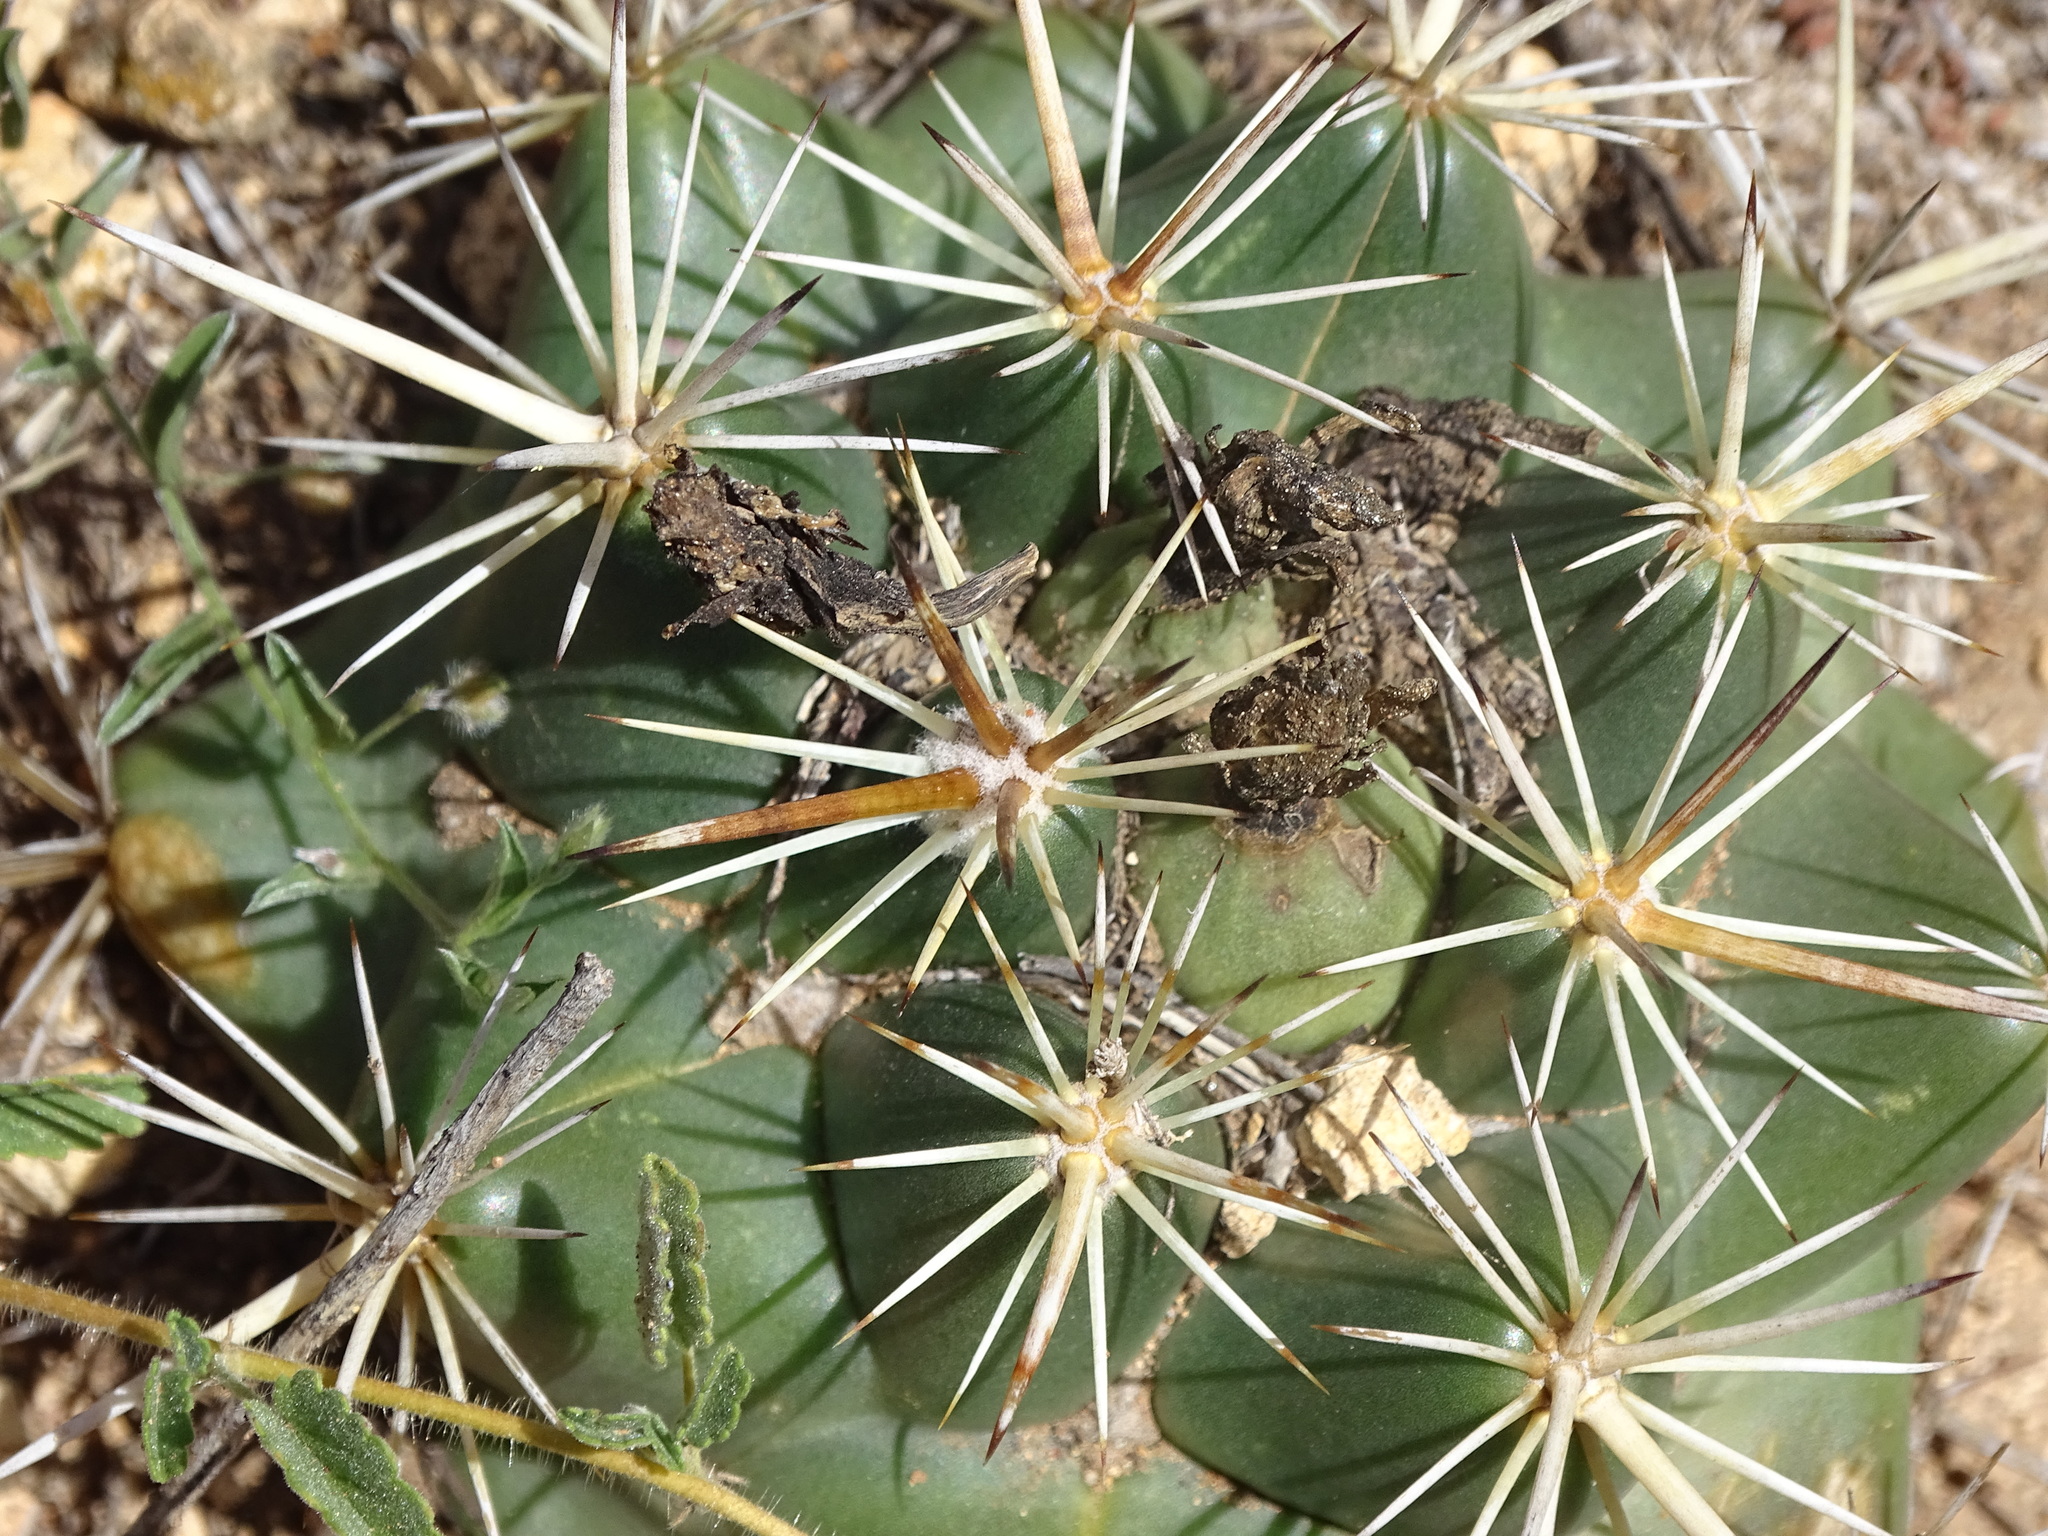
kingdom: Plantae
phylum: Tracheophyta
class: Magnoliopsida
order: Caryophyllales
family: Cactaceae
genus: Coryphantha
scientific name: Coryphantha ottonis
